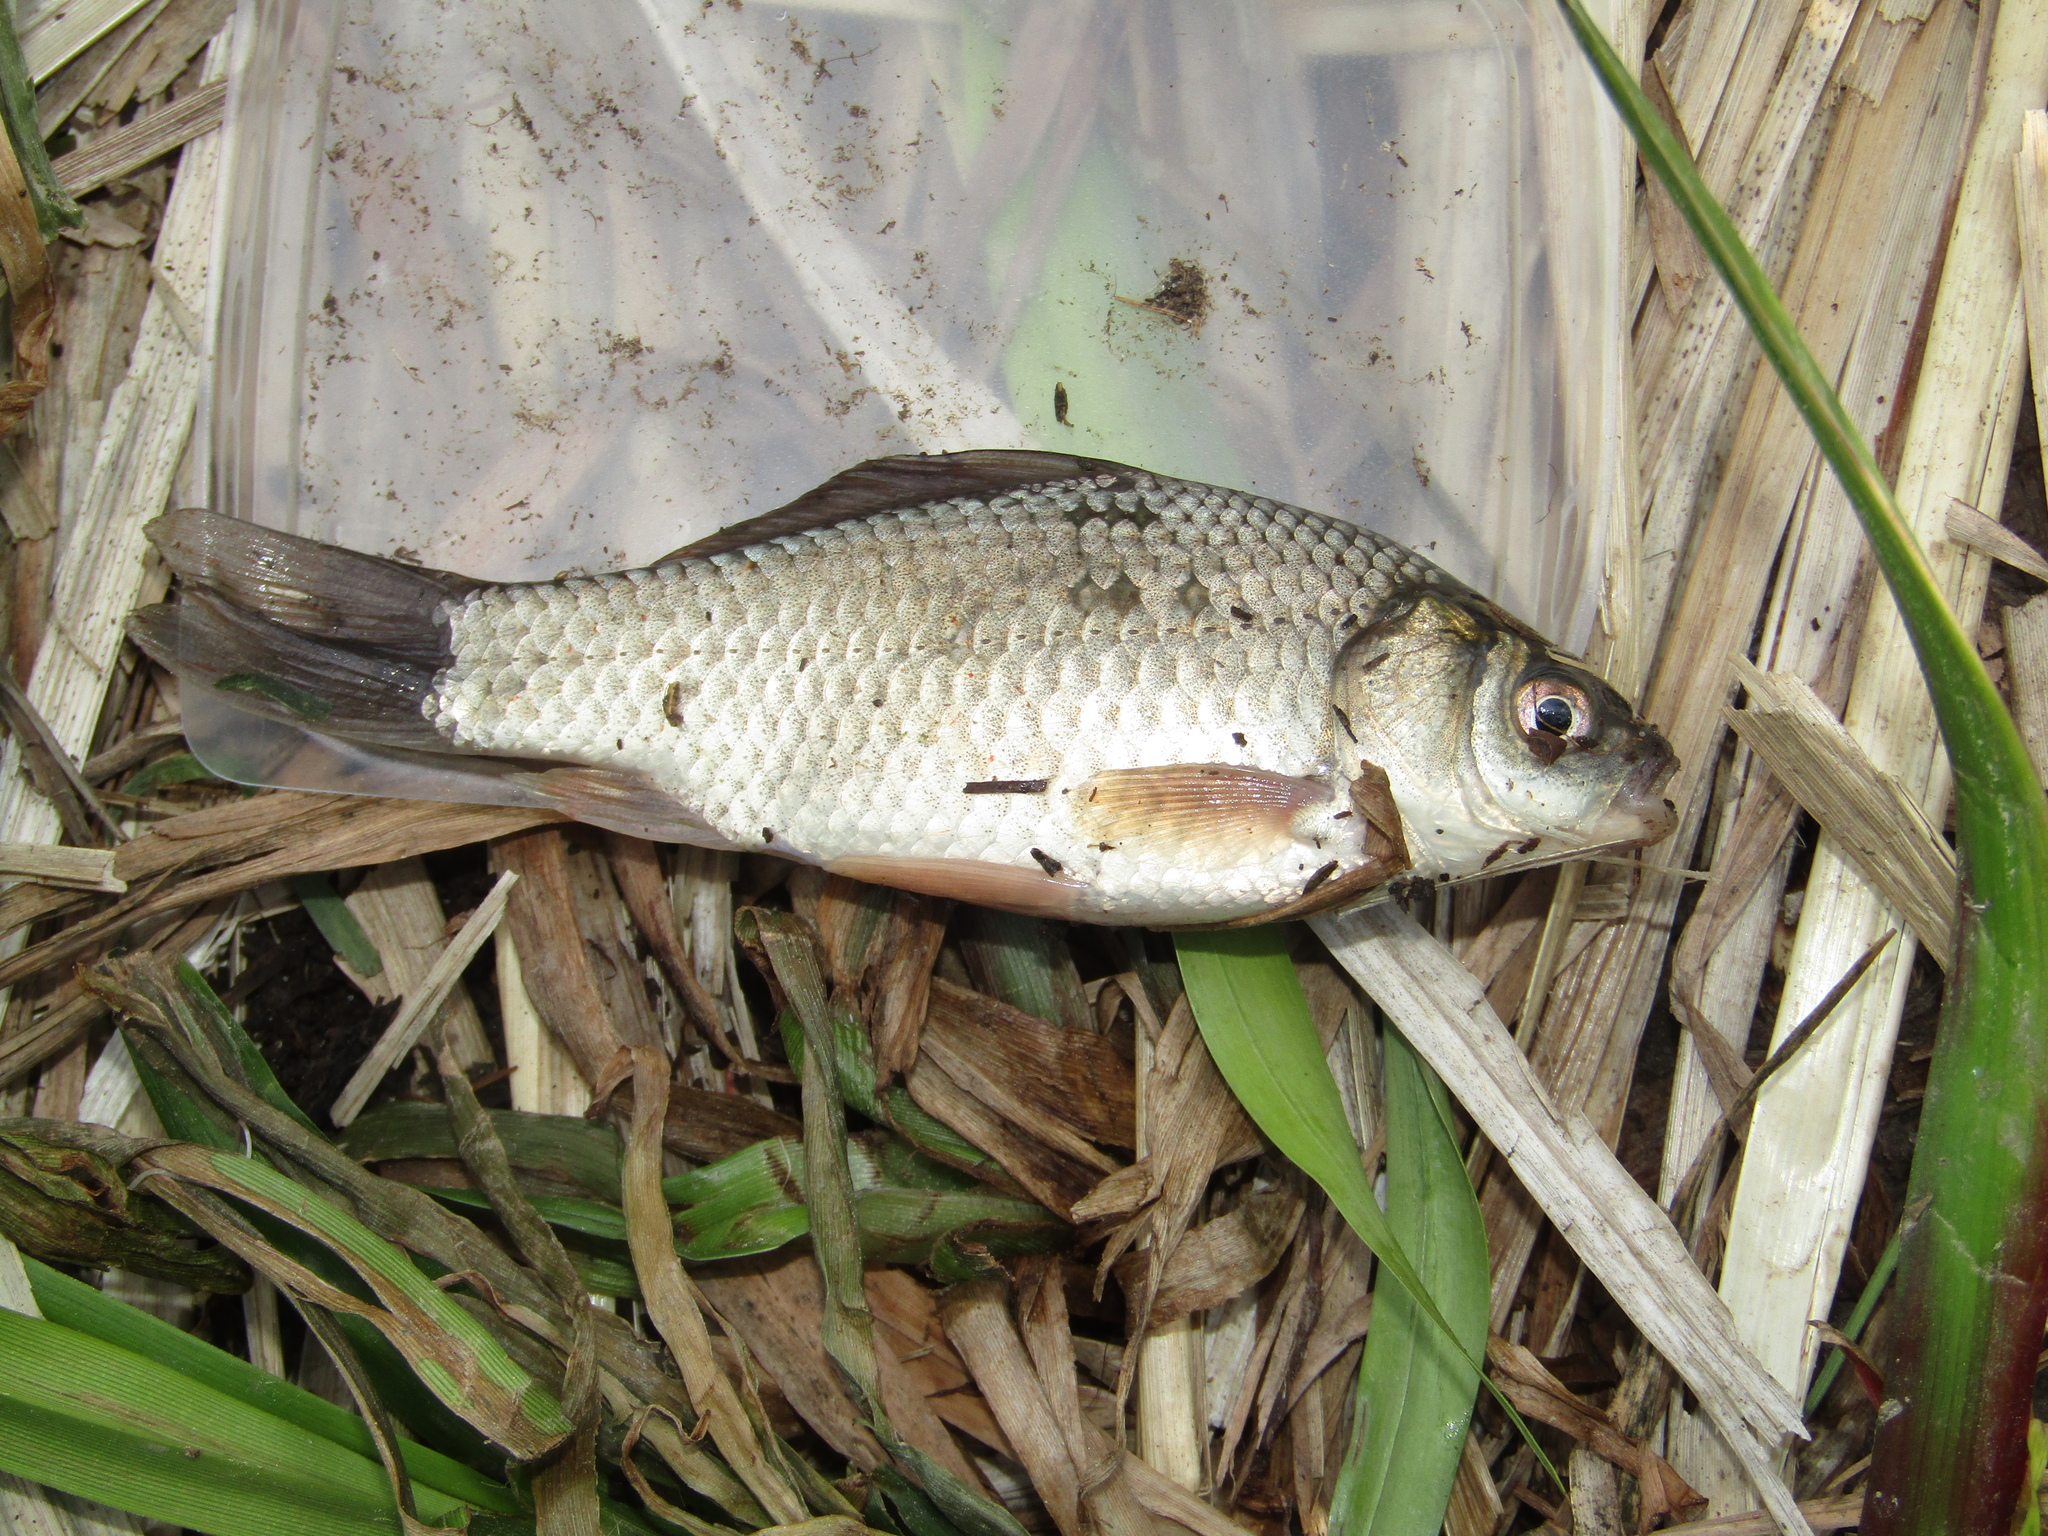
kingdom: Animalia
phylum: Chordata
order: Cypriniformes
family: Cyprinidae
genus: Carassius
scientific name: Carassius gibelio
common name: Prussian carp
